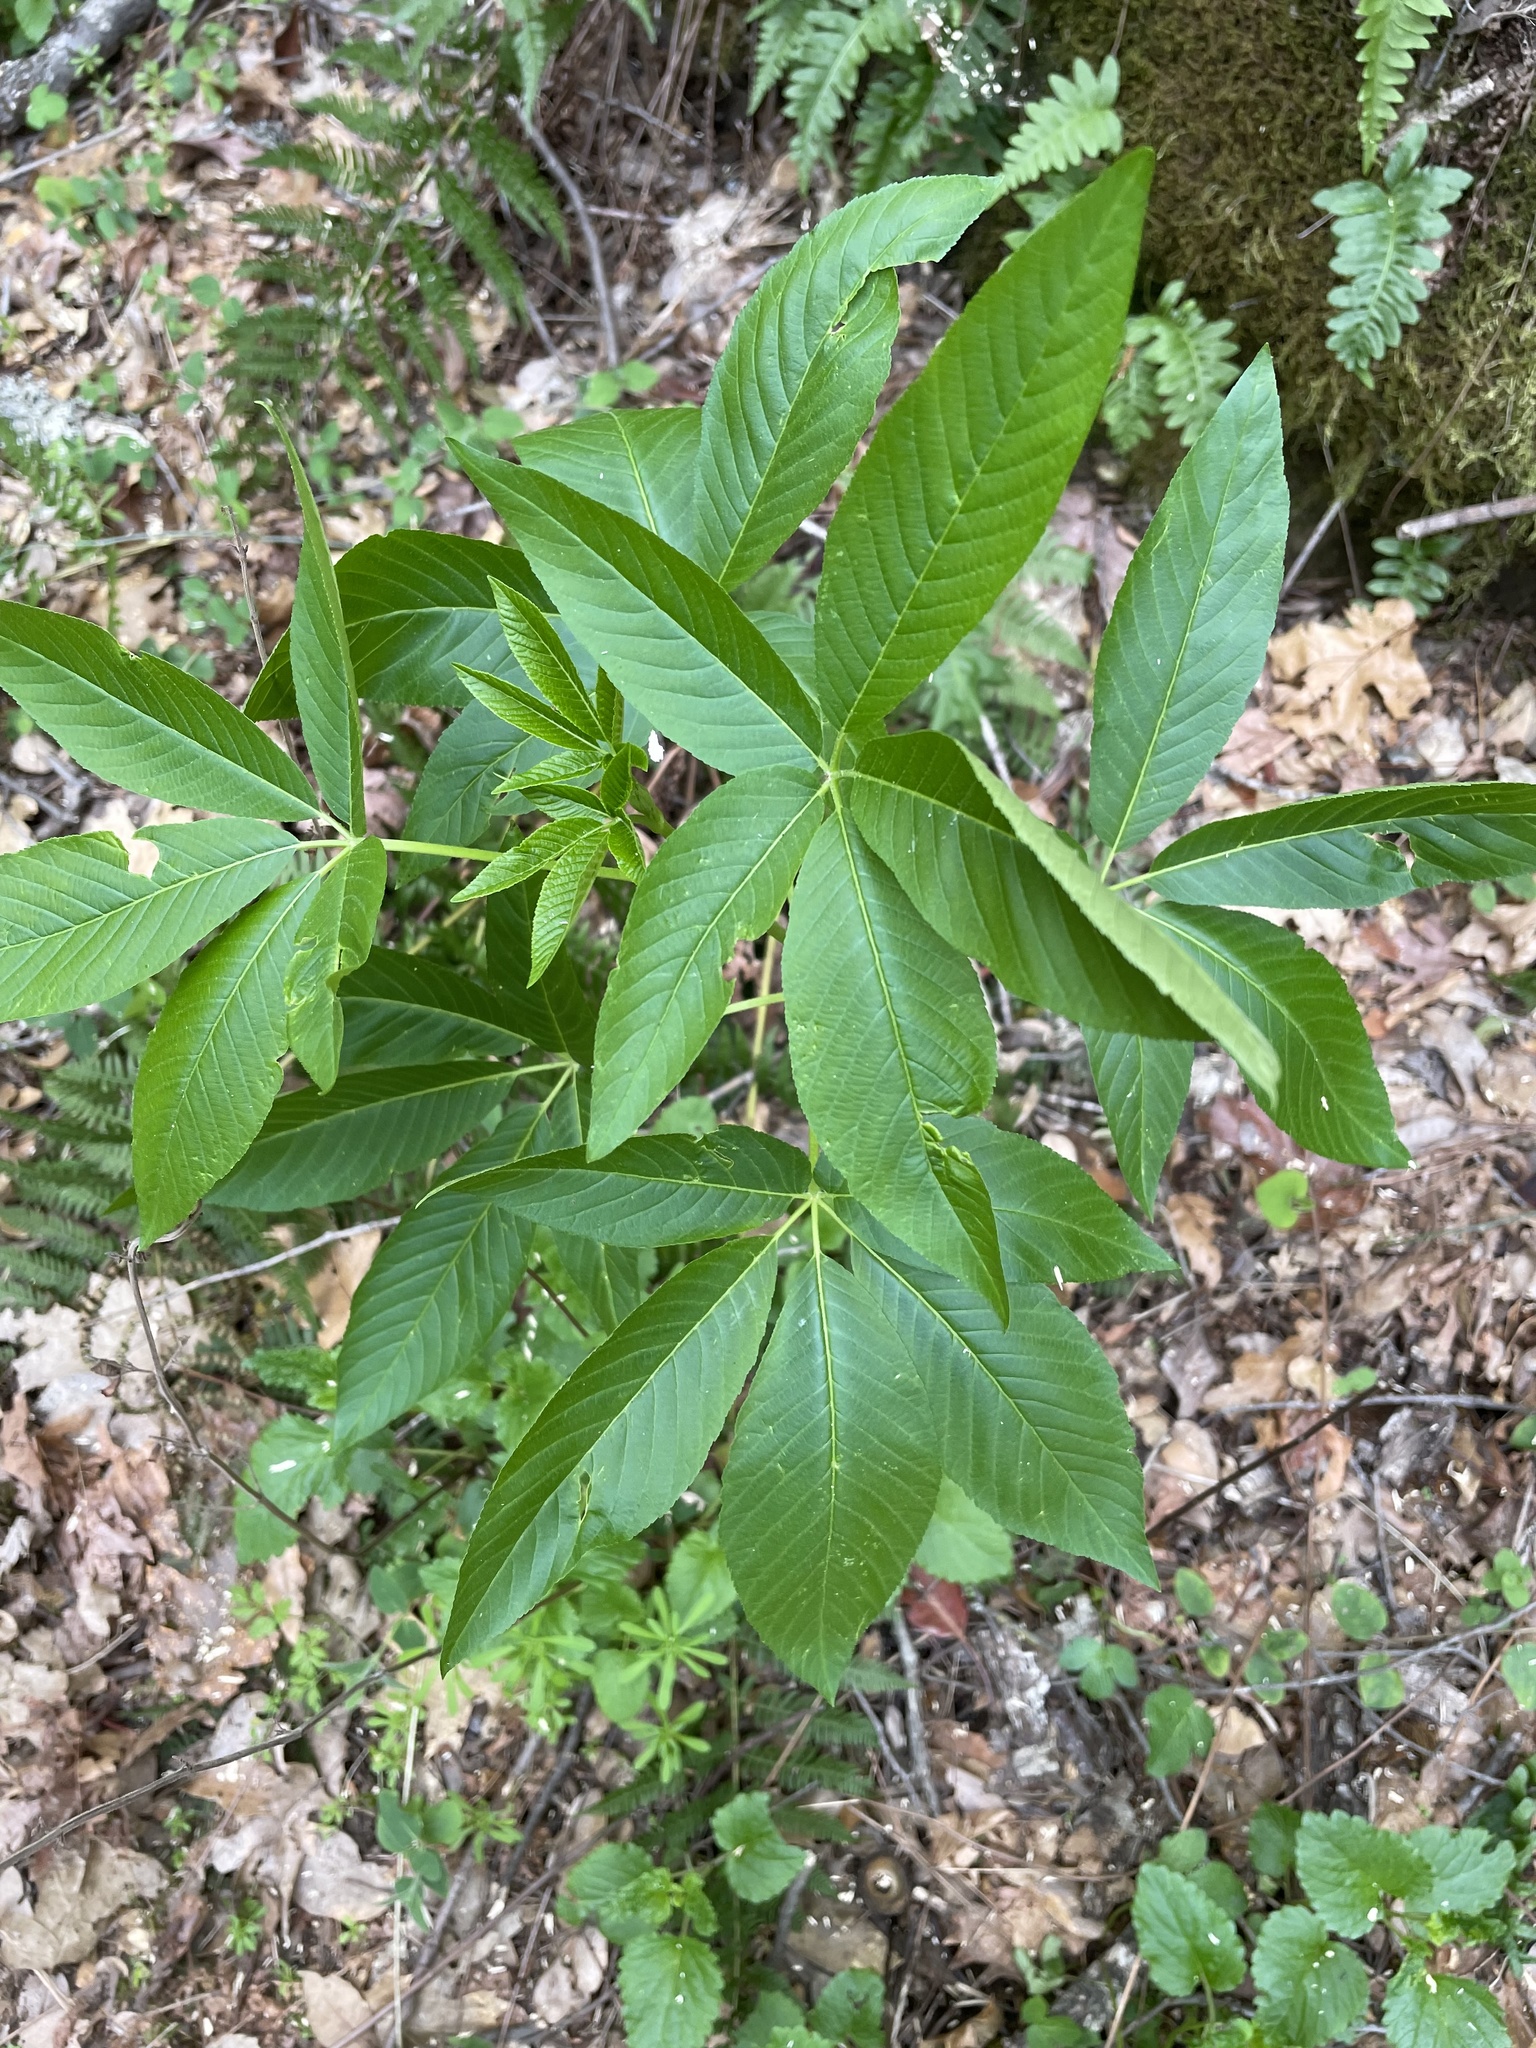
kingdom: Plantae
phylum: Tracheophyta
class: Magnoliopsida
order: Sapindales
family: Sapindaceae
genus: Aesculus
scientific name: Aesculus californica
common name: California buckeye
